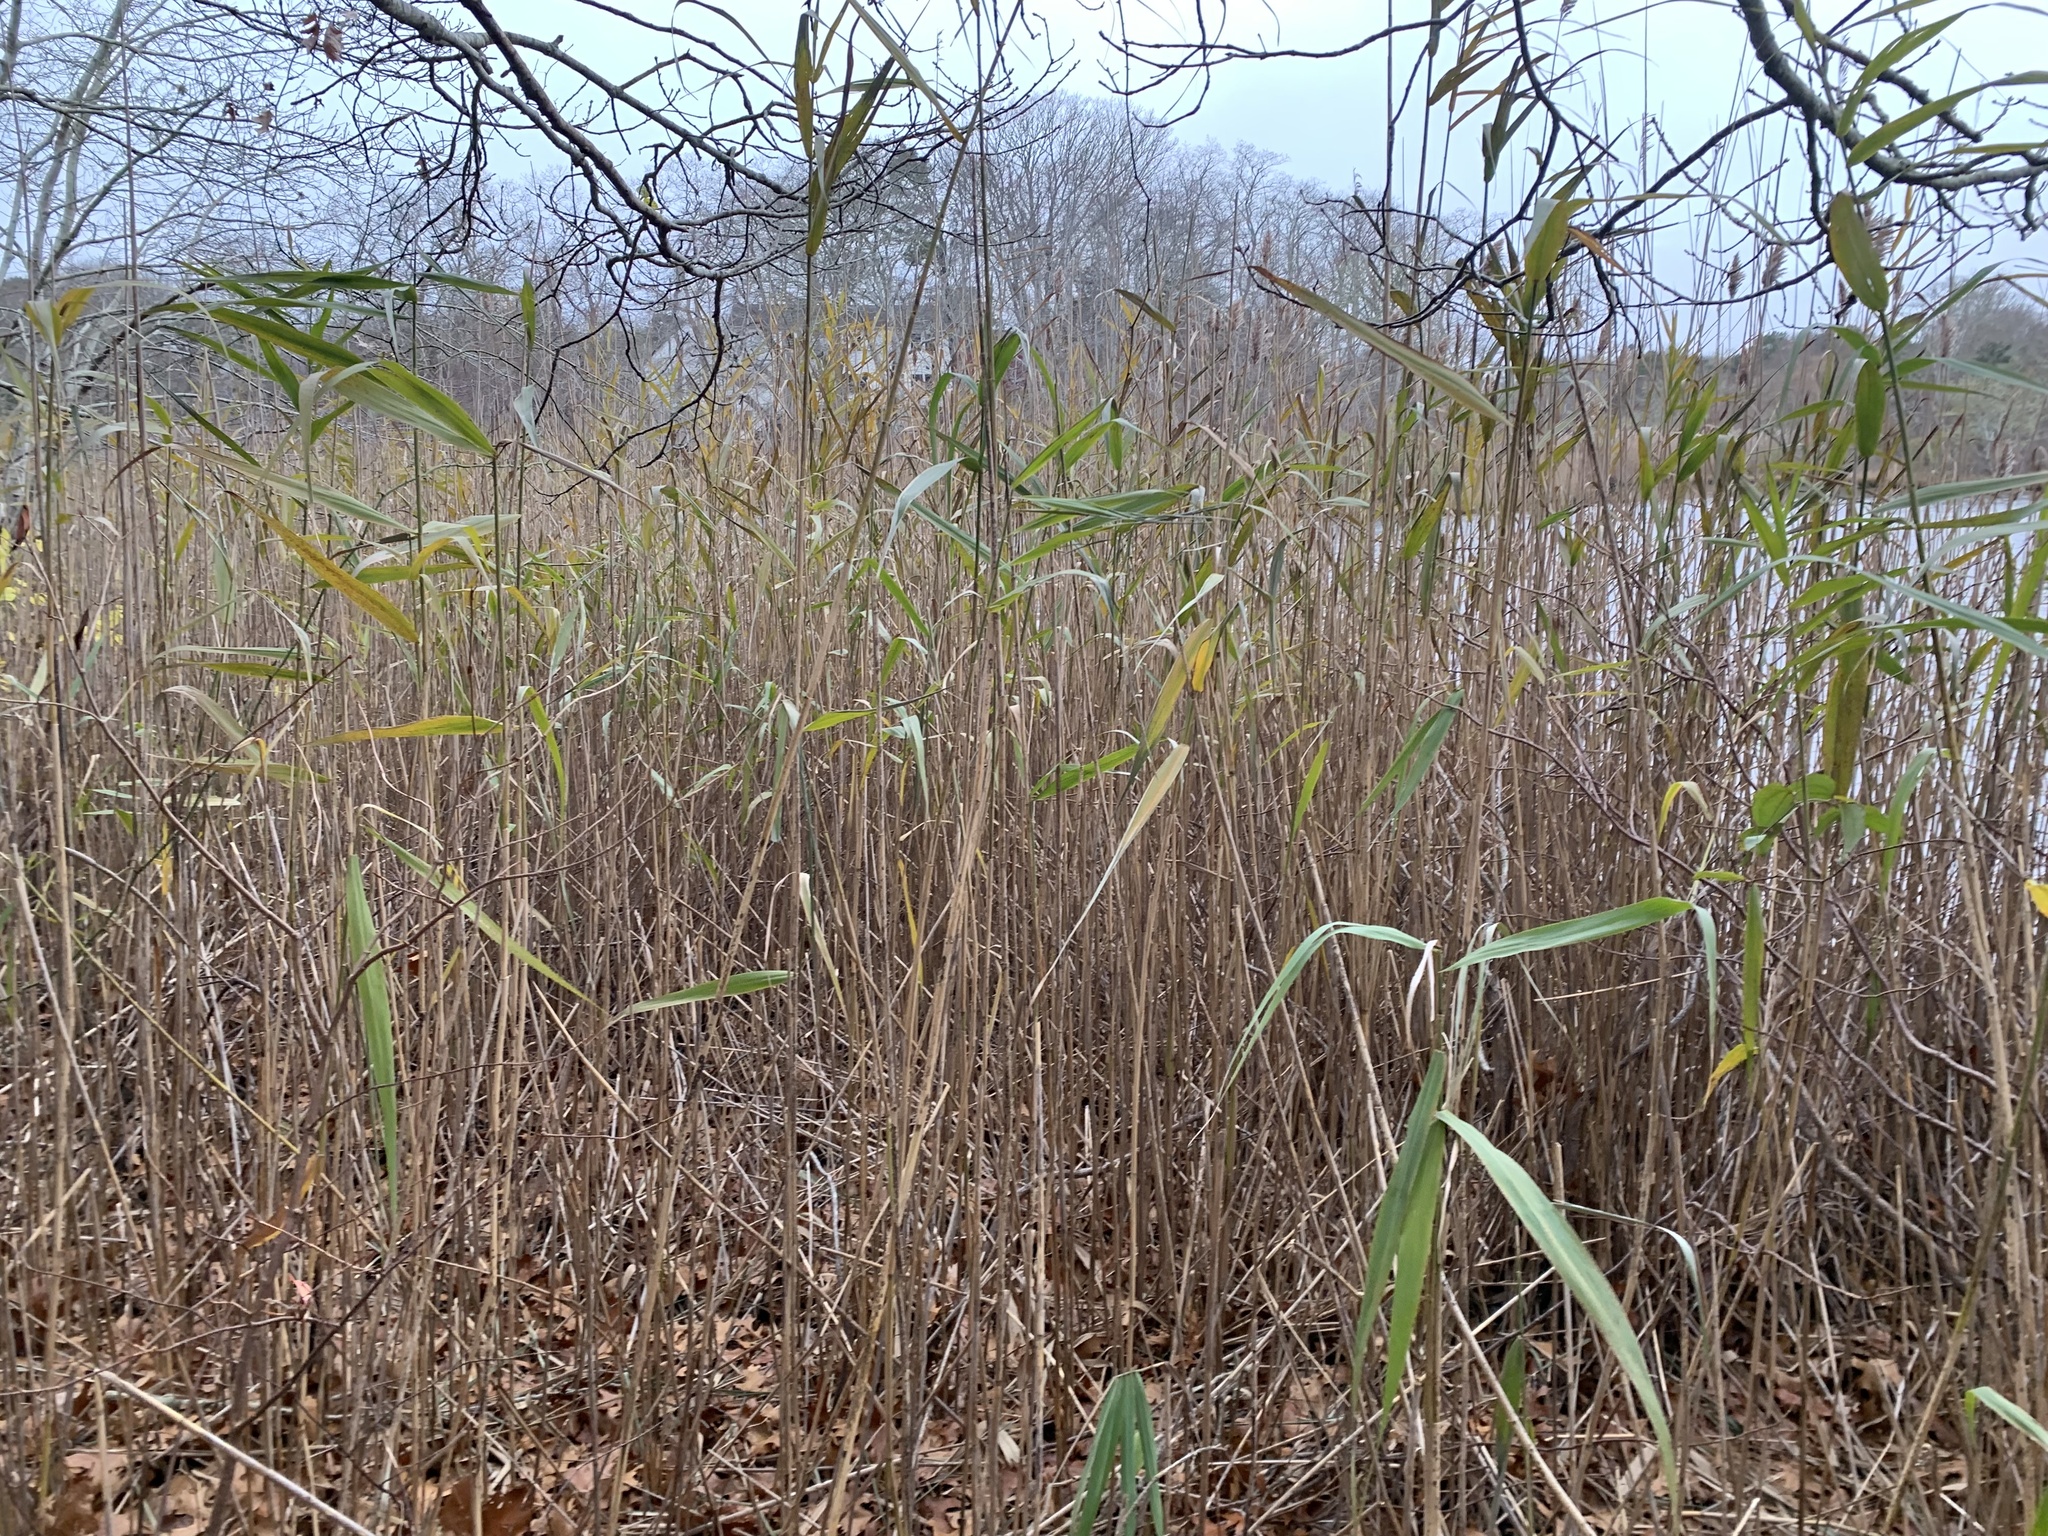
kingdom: Plantae
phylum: Tracheophyta
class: Liliopsida
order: Poales
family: Poaceae
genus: Phragmites
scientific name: Phragmites australis
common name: Common reed
